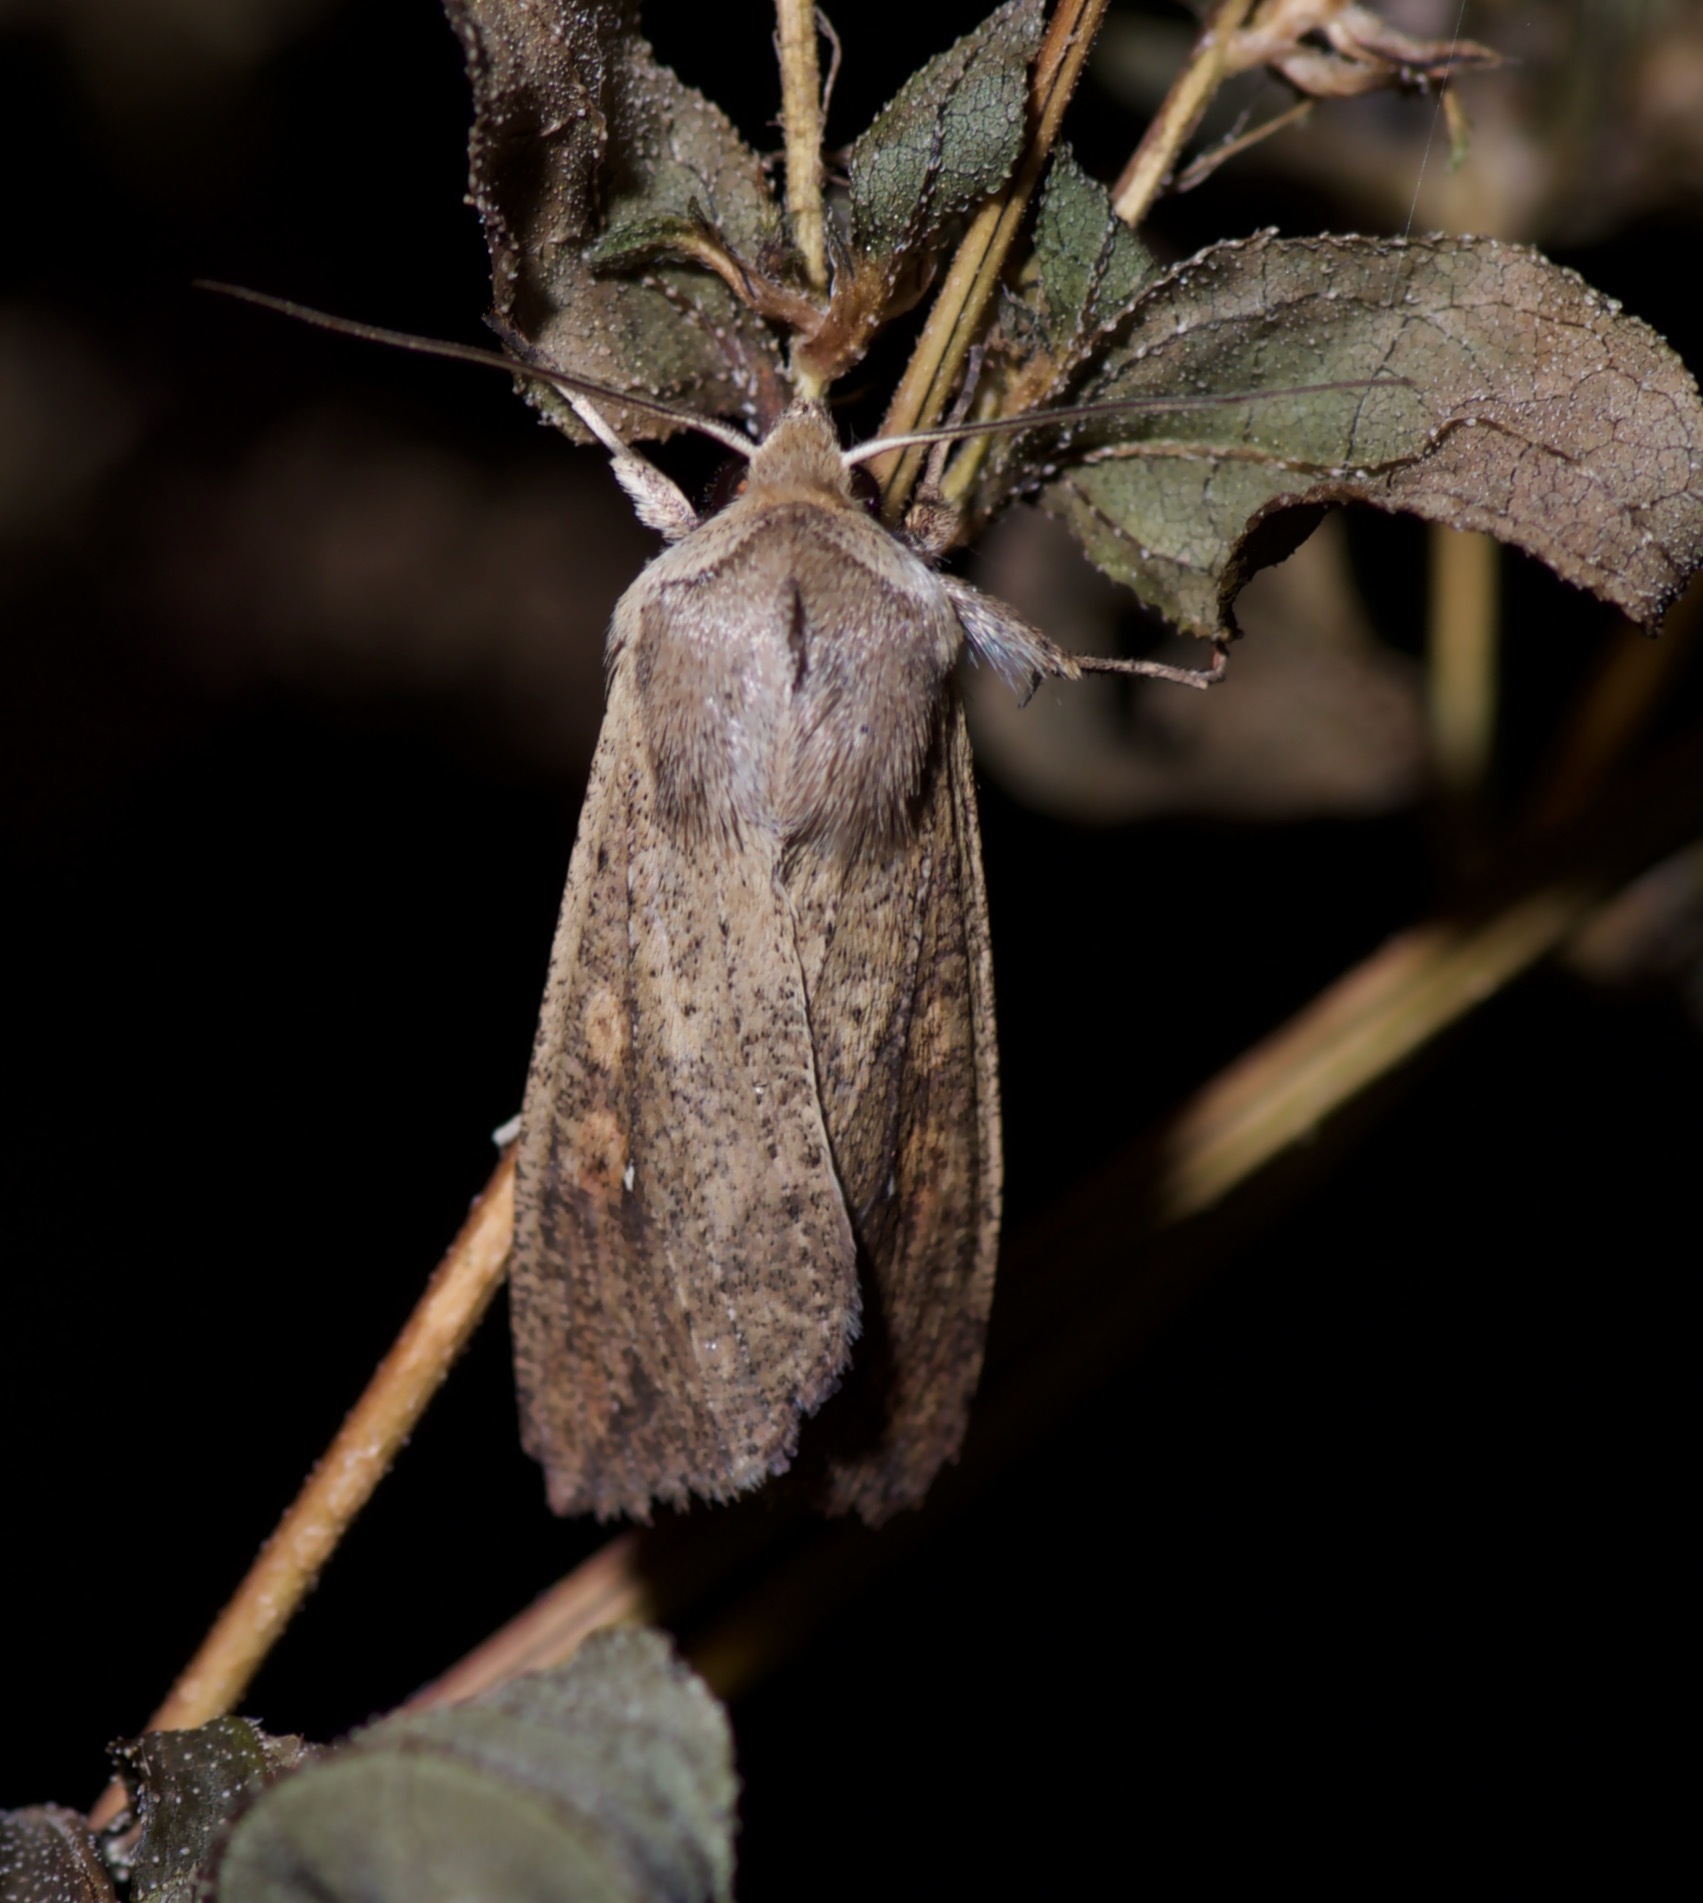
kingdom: Animalia
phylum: Arthropoda
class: Insecta
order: Lepidoptera
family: Noctuidae
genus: Mythimna
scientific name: Mythimna unipuncta
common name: White-speck
